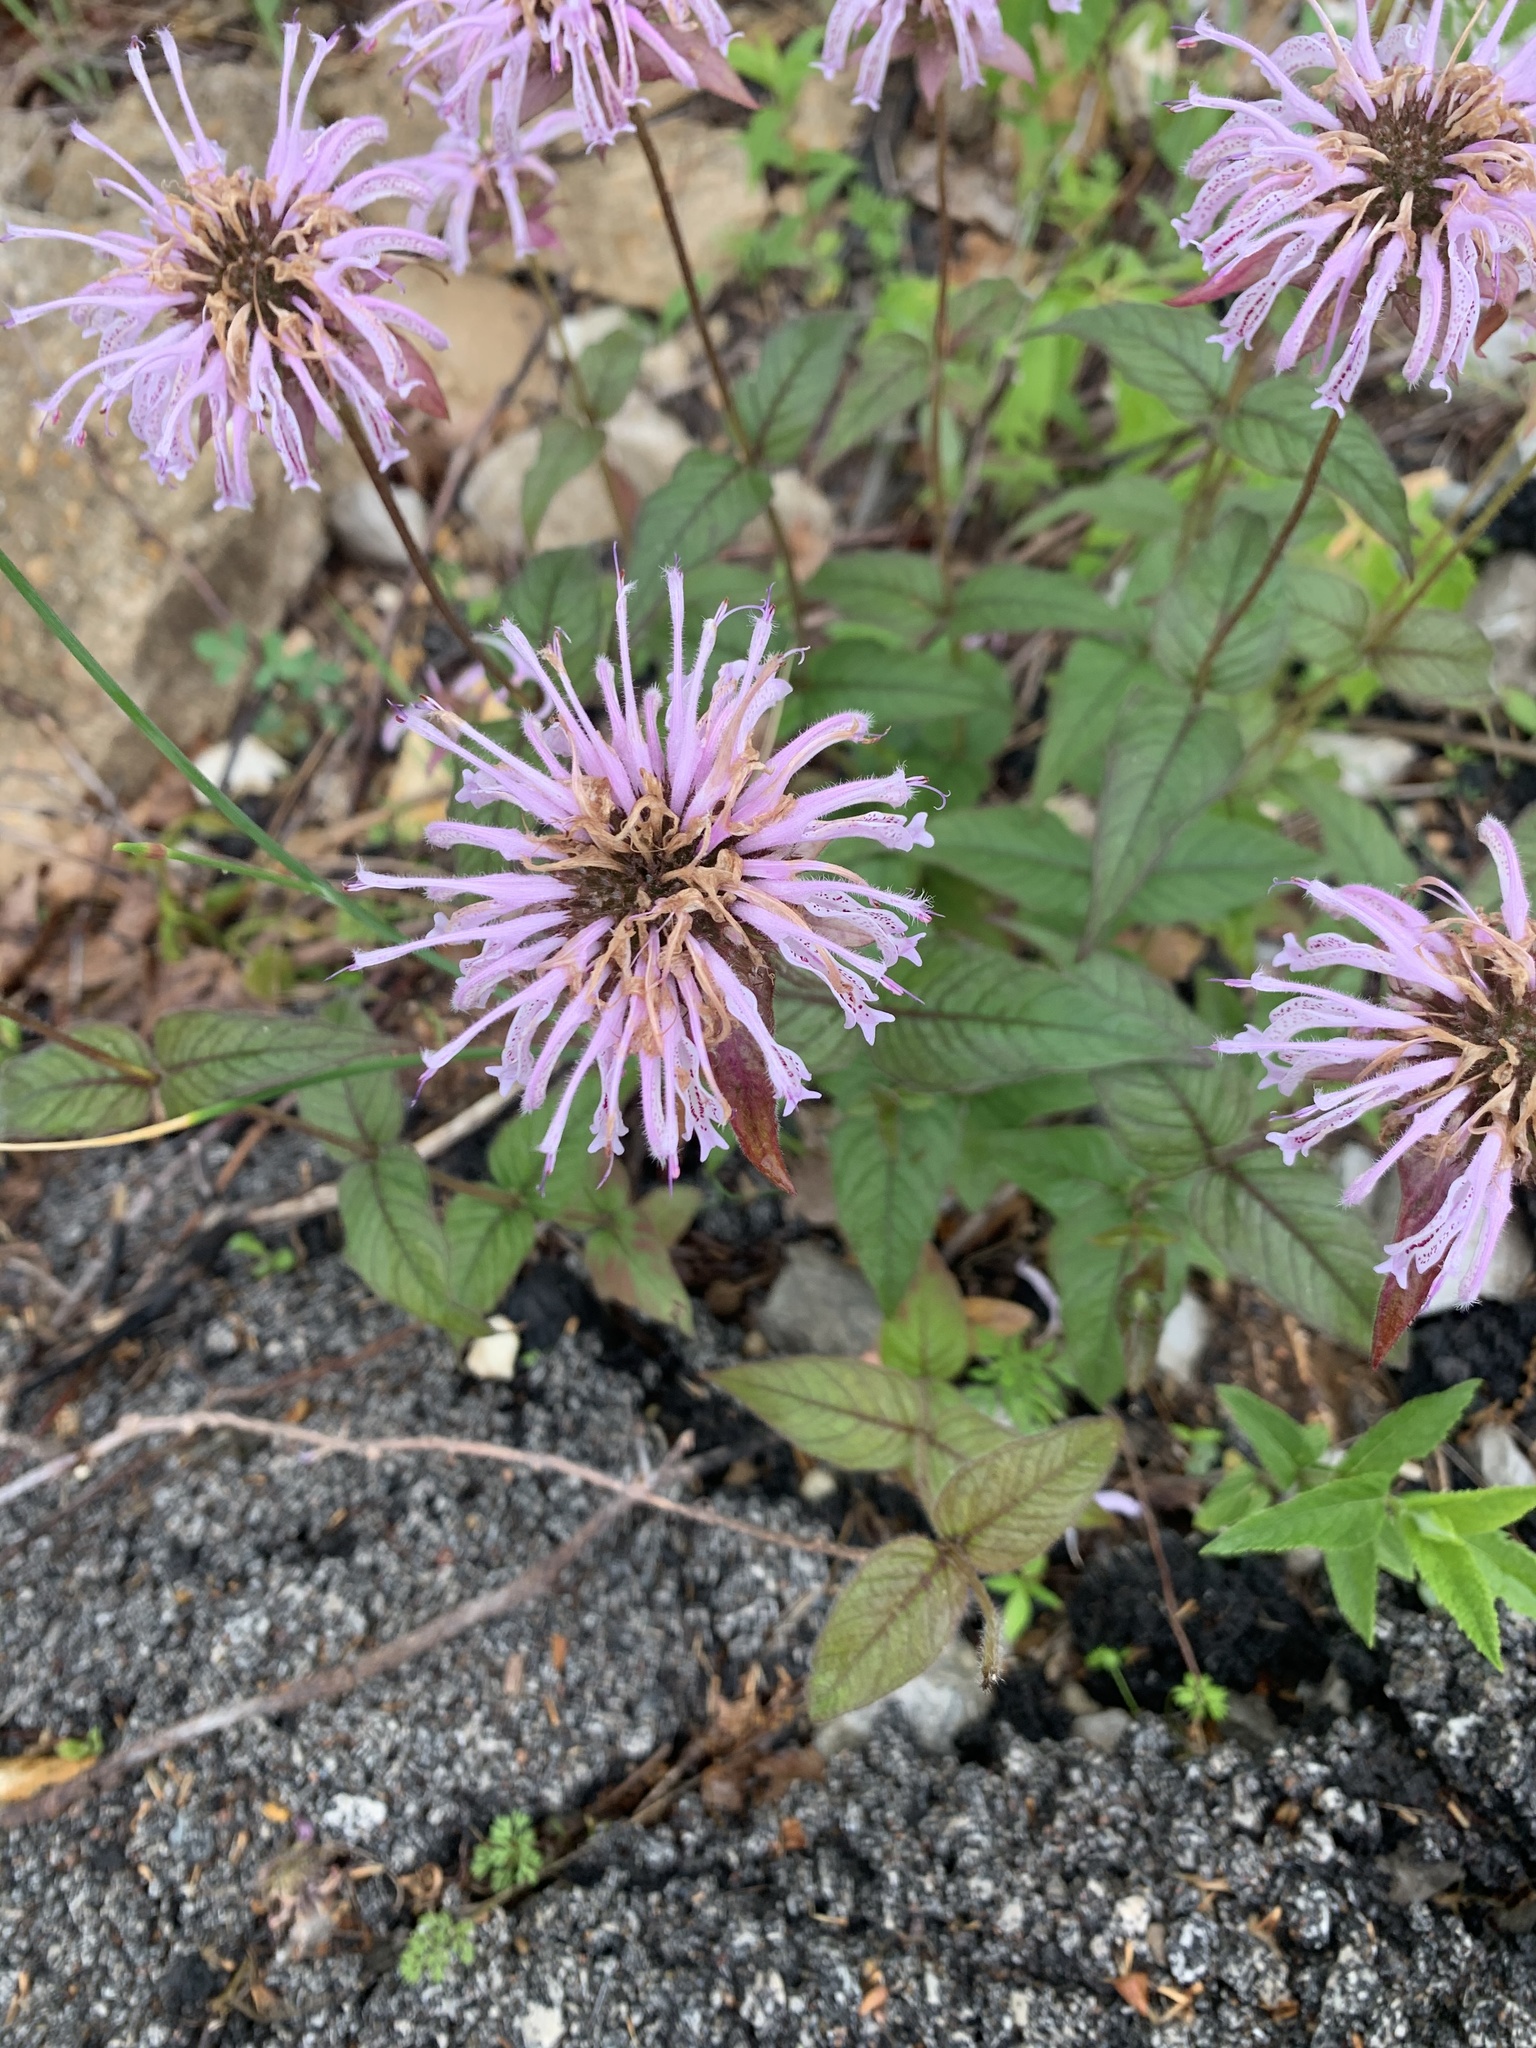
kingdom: Plantae
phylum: Tracheophyta
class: Magnoliopsida
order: Lamiales
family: Lamiaceae
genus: Monarda
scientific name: Monarda bradburiana
